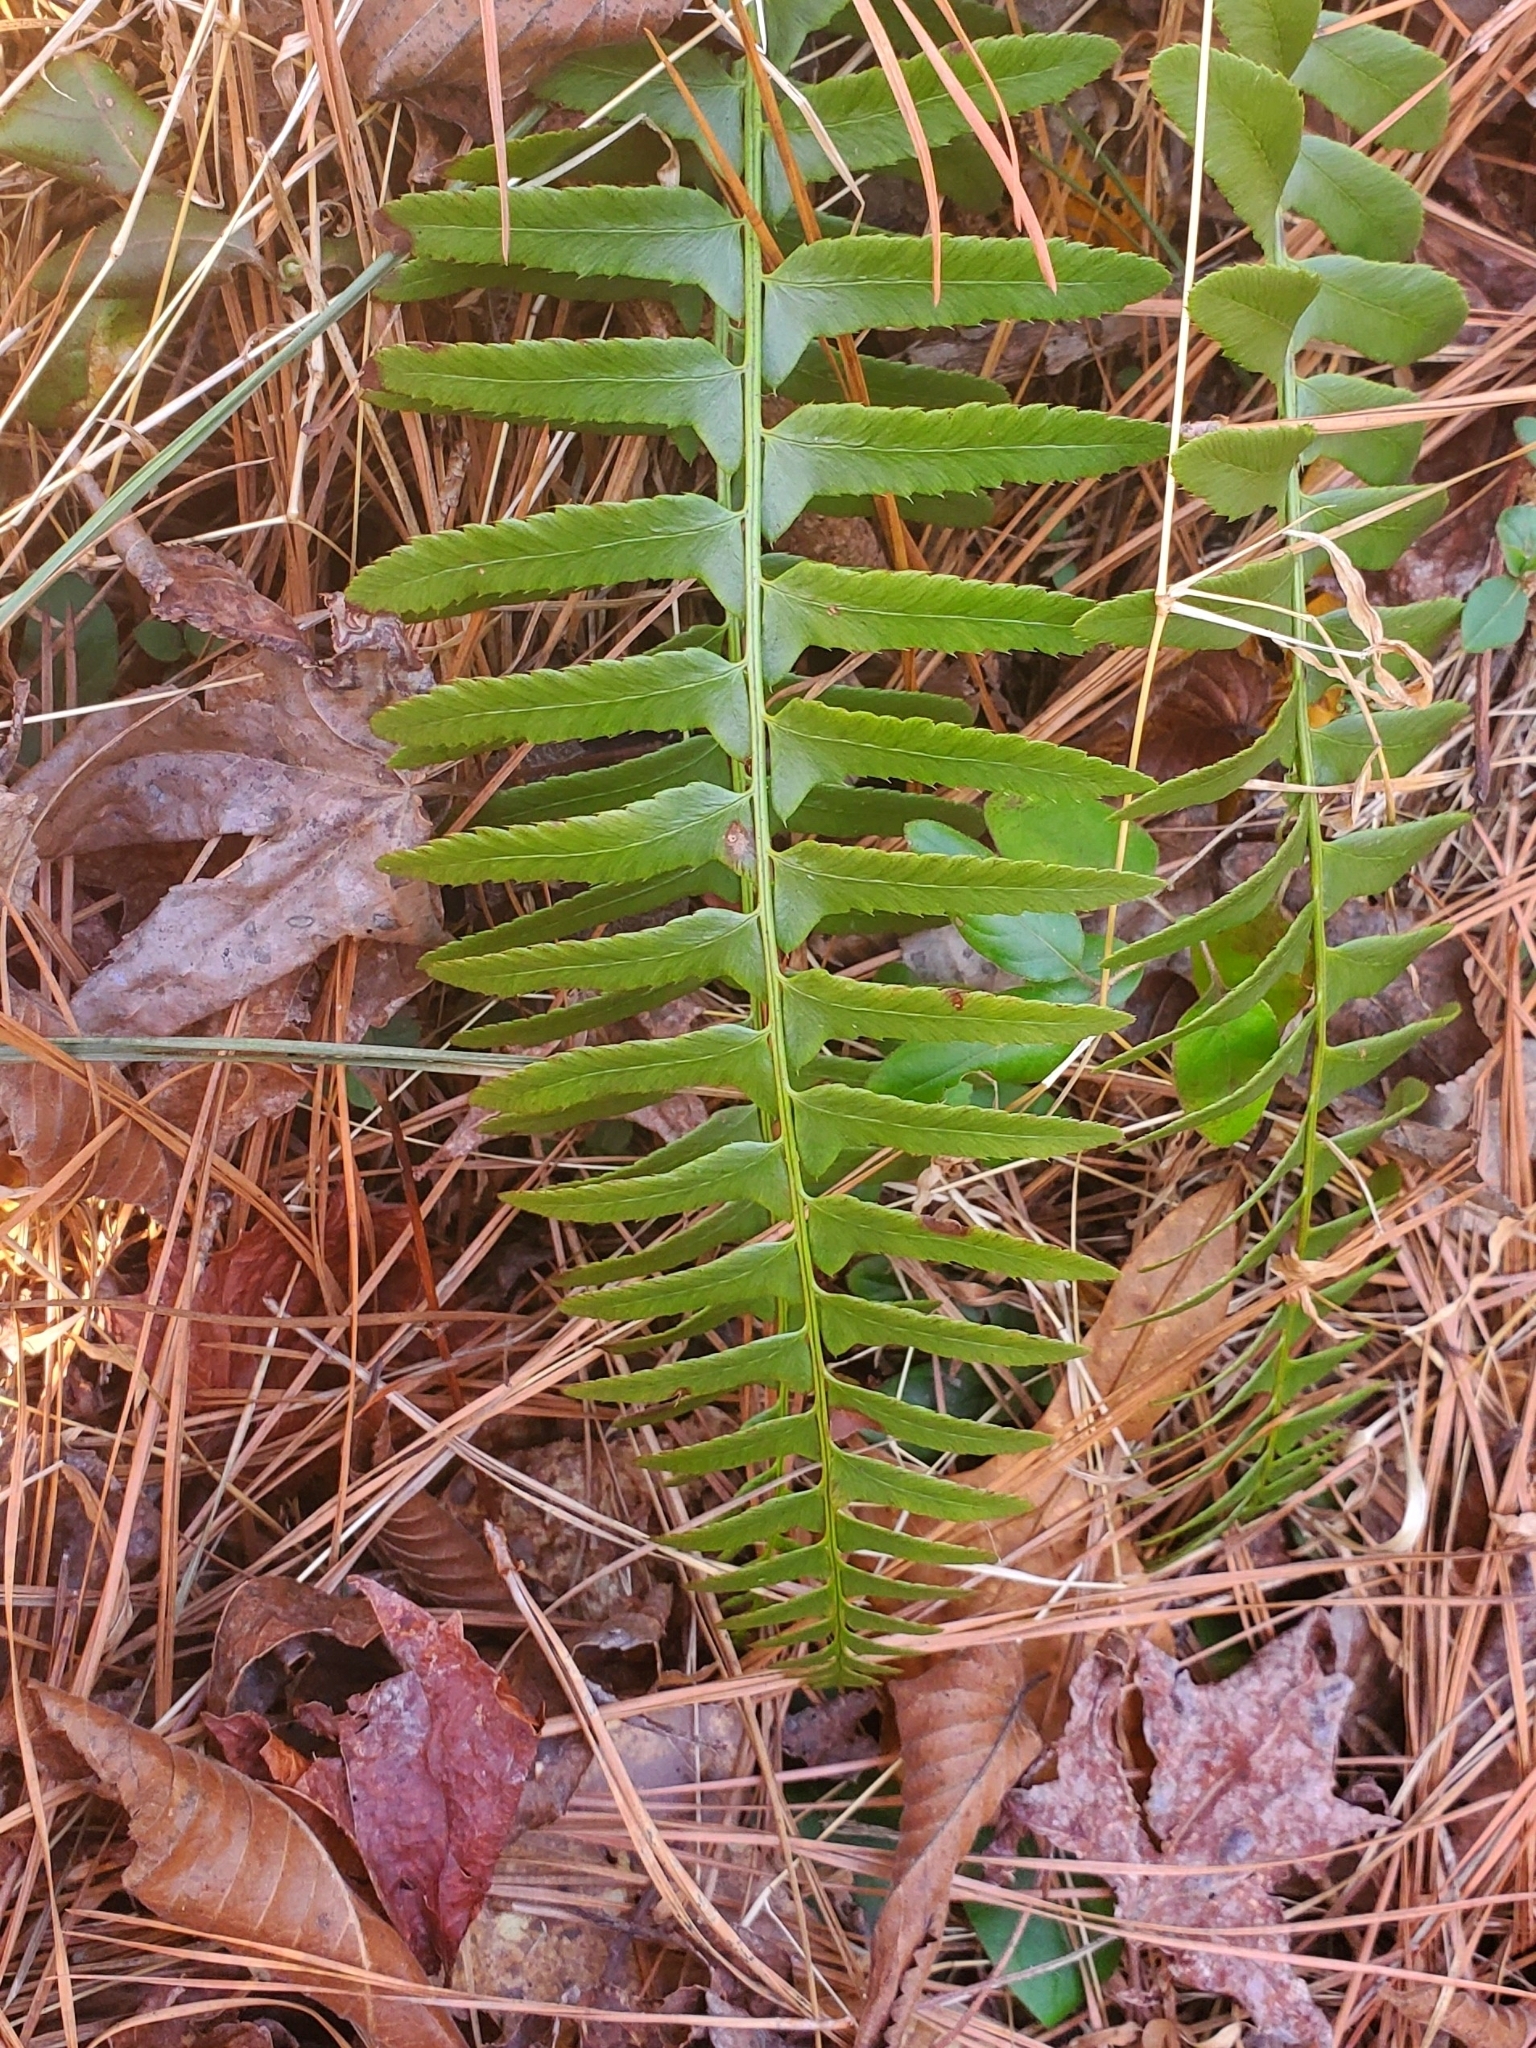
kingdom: Plantae
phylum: Tracheophyta
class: Polypodiopsida
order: Polypodiales
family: Dryopteridaceae
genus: Polystichum
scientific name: Polystichum acrostichoides
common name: Christmas fern
